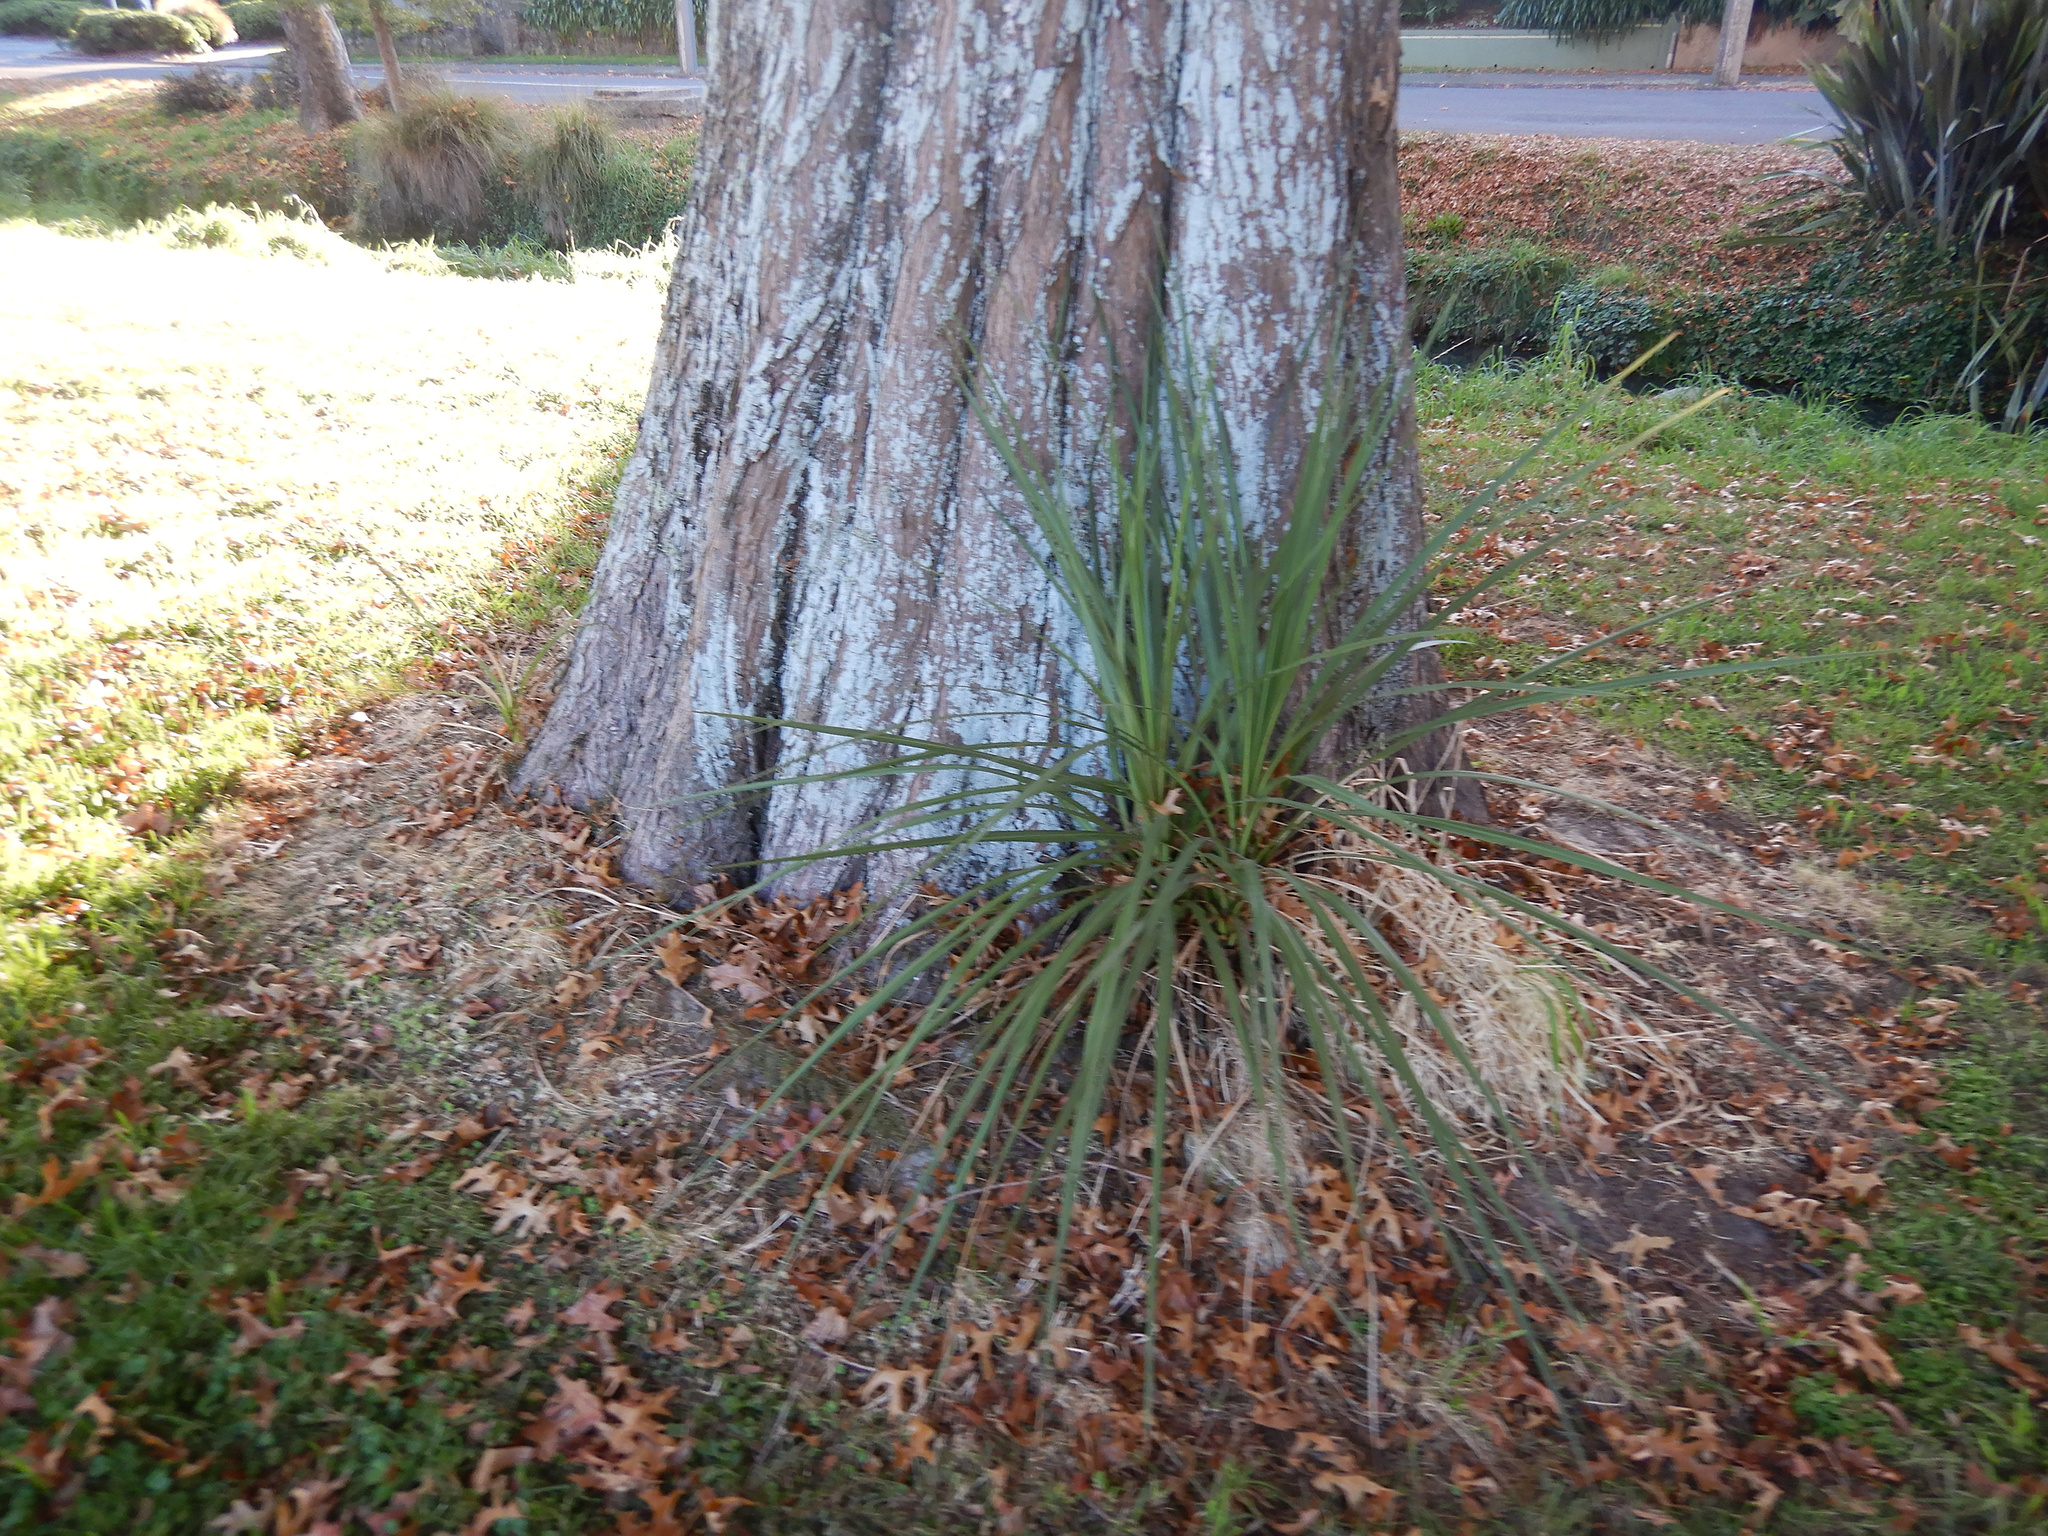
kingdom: Plantae
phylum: Tracheophyta
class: Liliopsida
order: Asparagales
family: Asparagaceae
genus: Cordyline
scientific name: Cordyline australis
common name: Cabbage-palm
